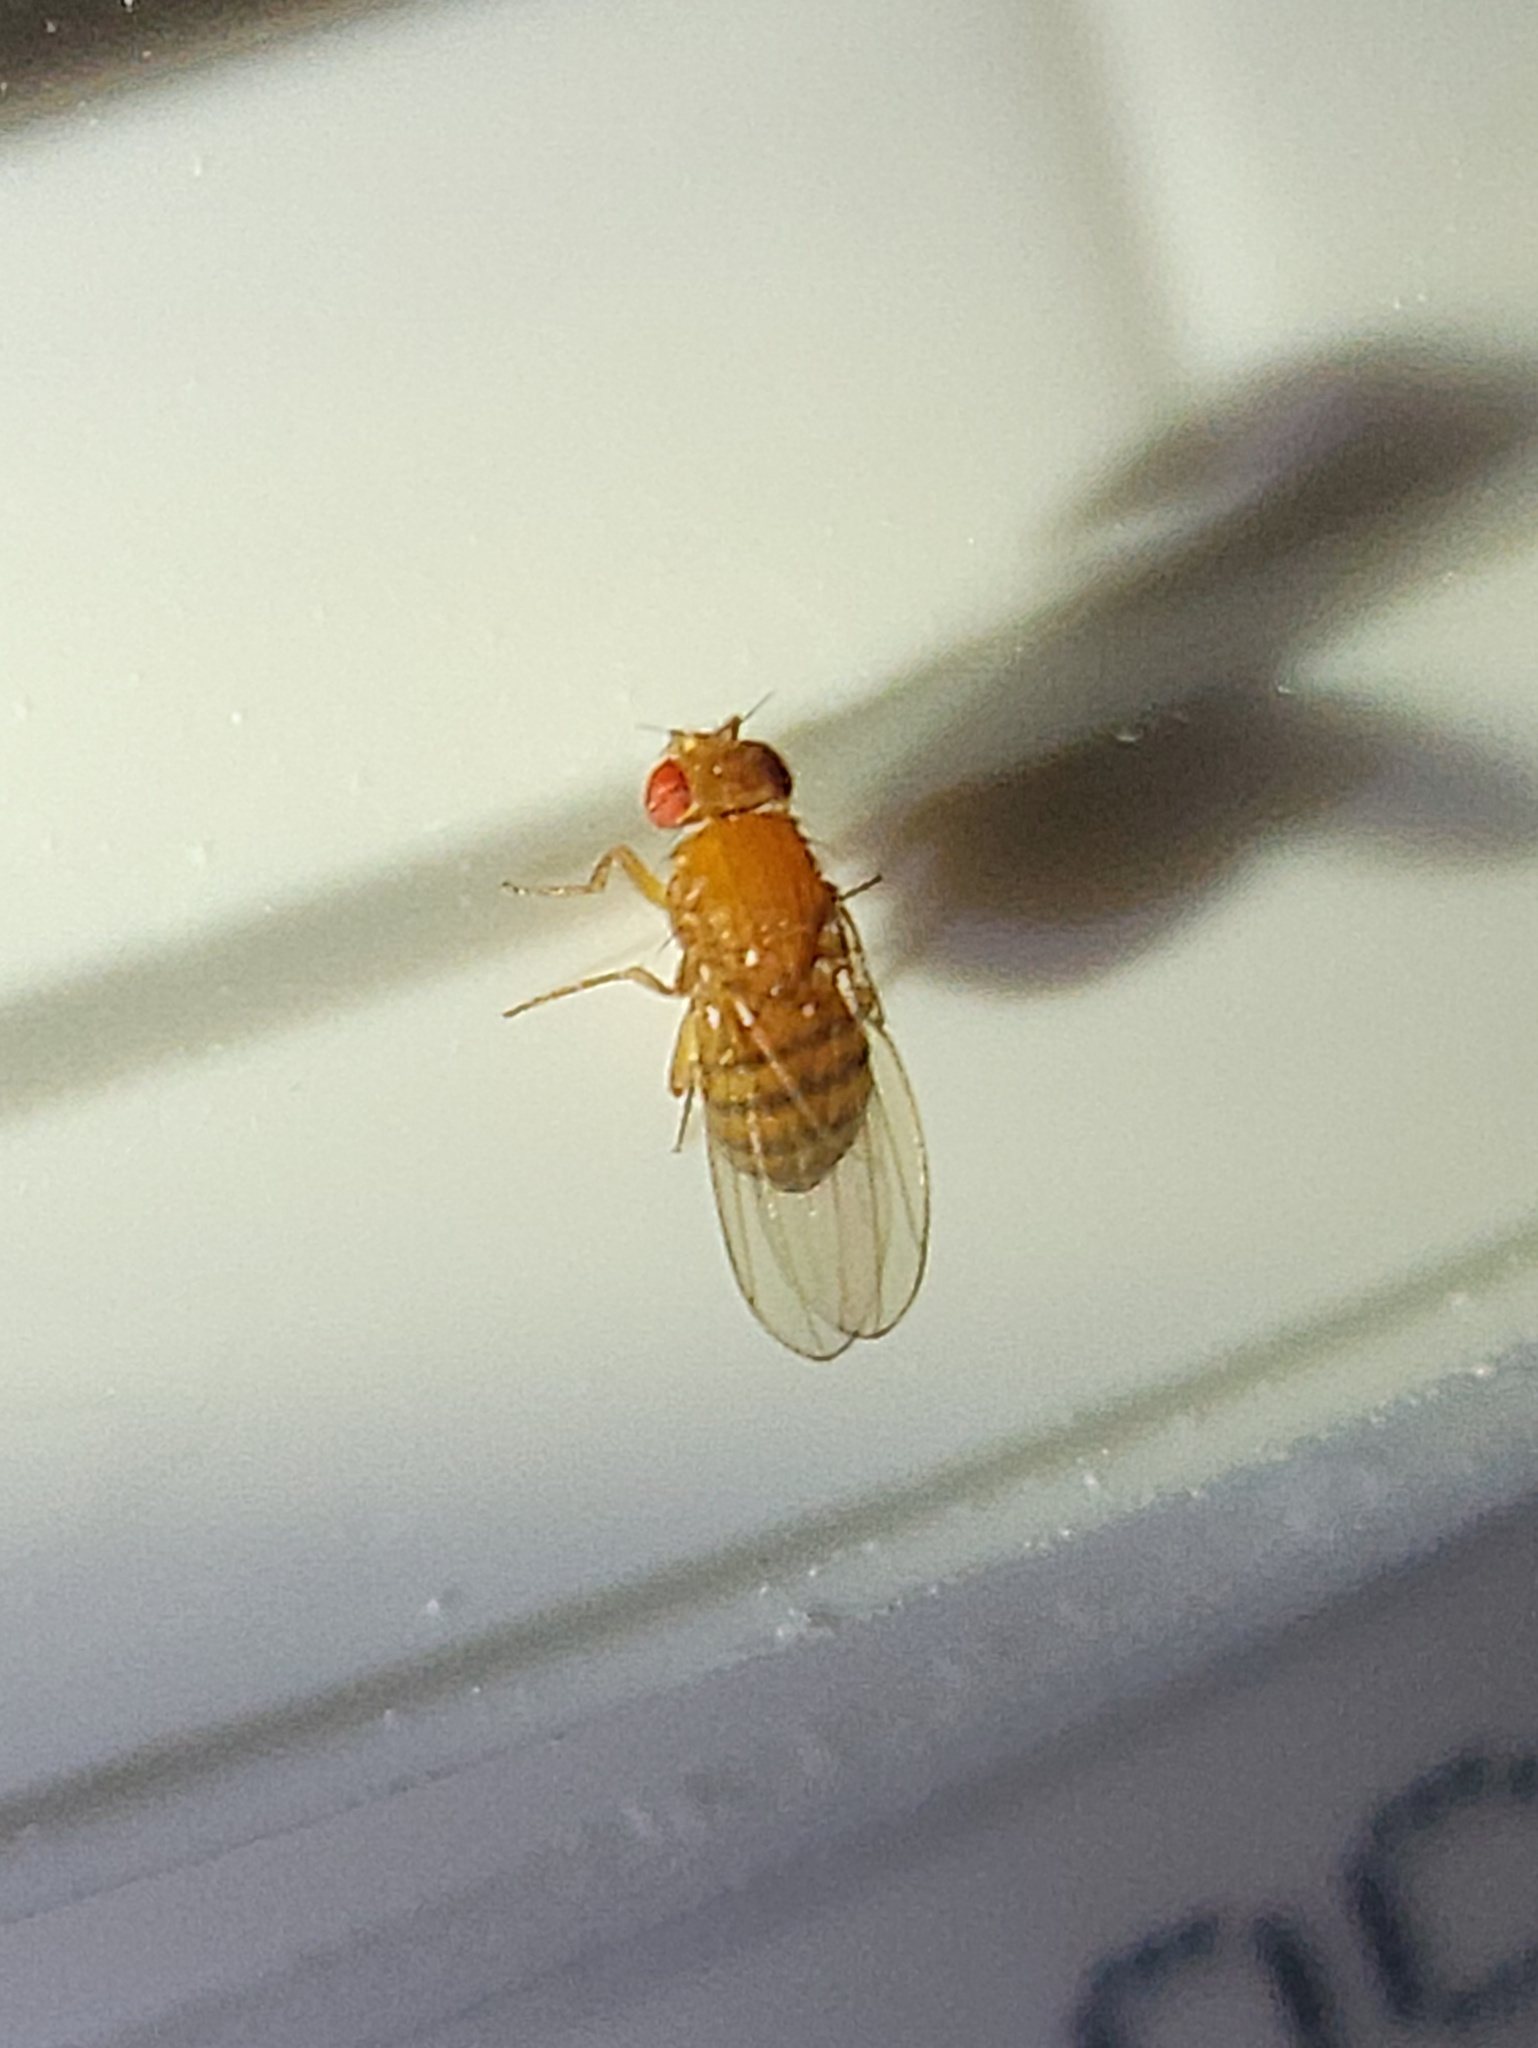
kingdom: Animalia
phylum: Arthropoda
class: Insecta
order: Diptera
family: Drosophilidae
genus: Drosophila
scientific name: Drosophila melanogaster
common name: Pomace fly
